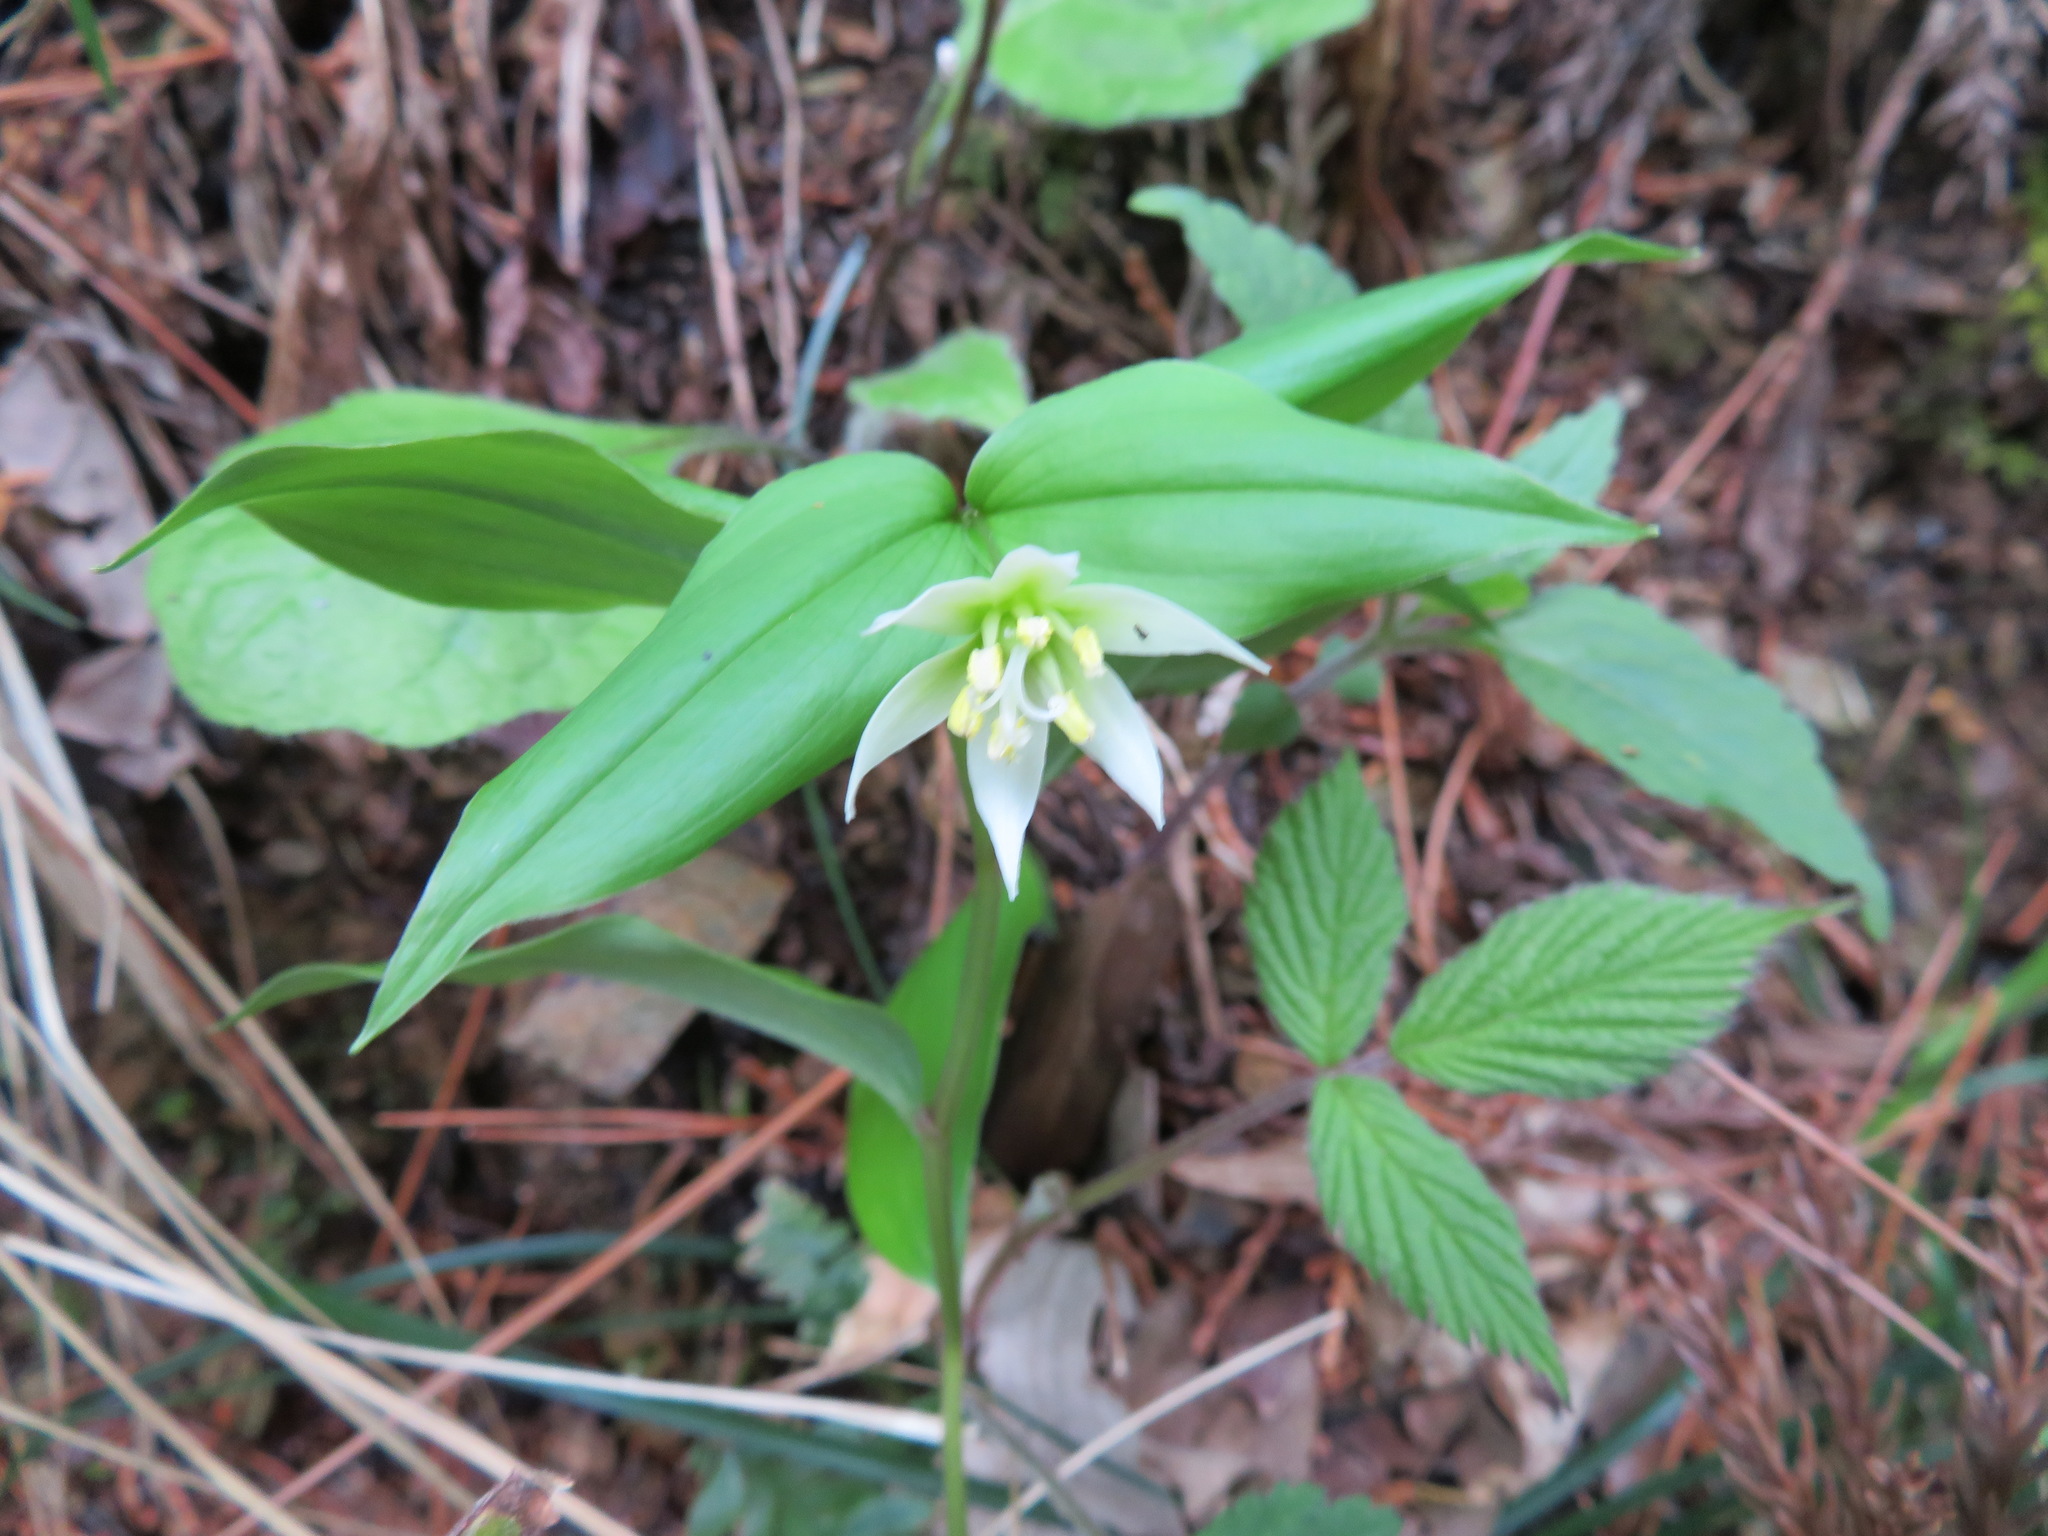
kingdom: Plantae
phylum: Tracheophyta
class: Liliopsida
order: Liliales
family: Colchicaceae
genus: Disporum
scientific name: Disporum smilacinum
